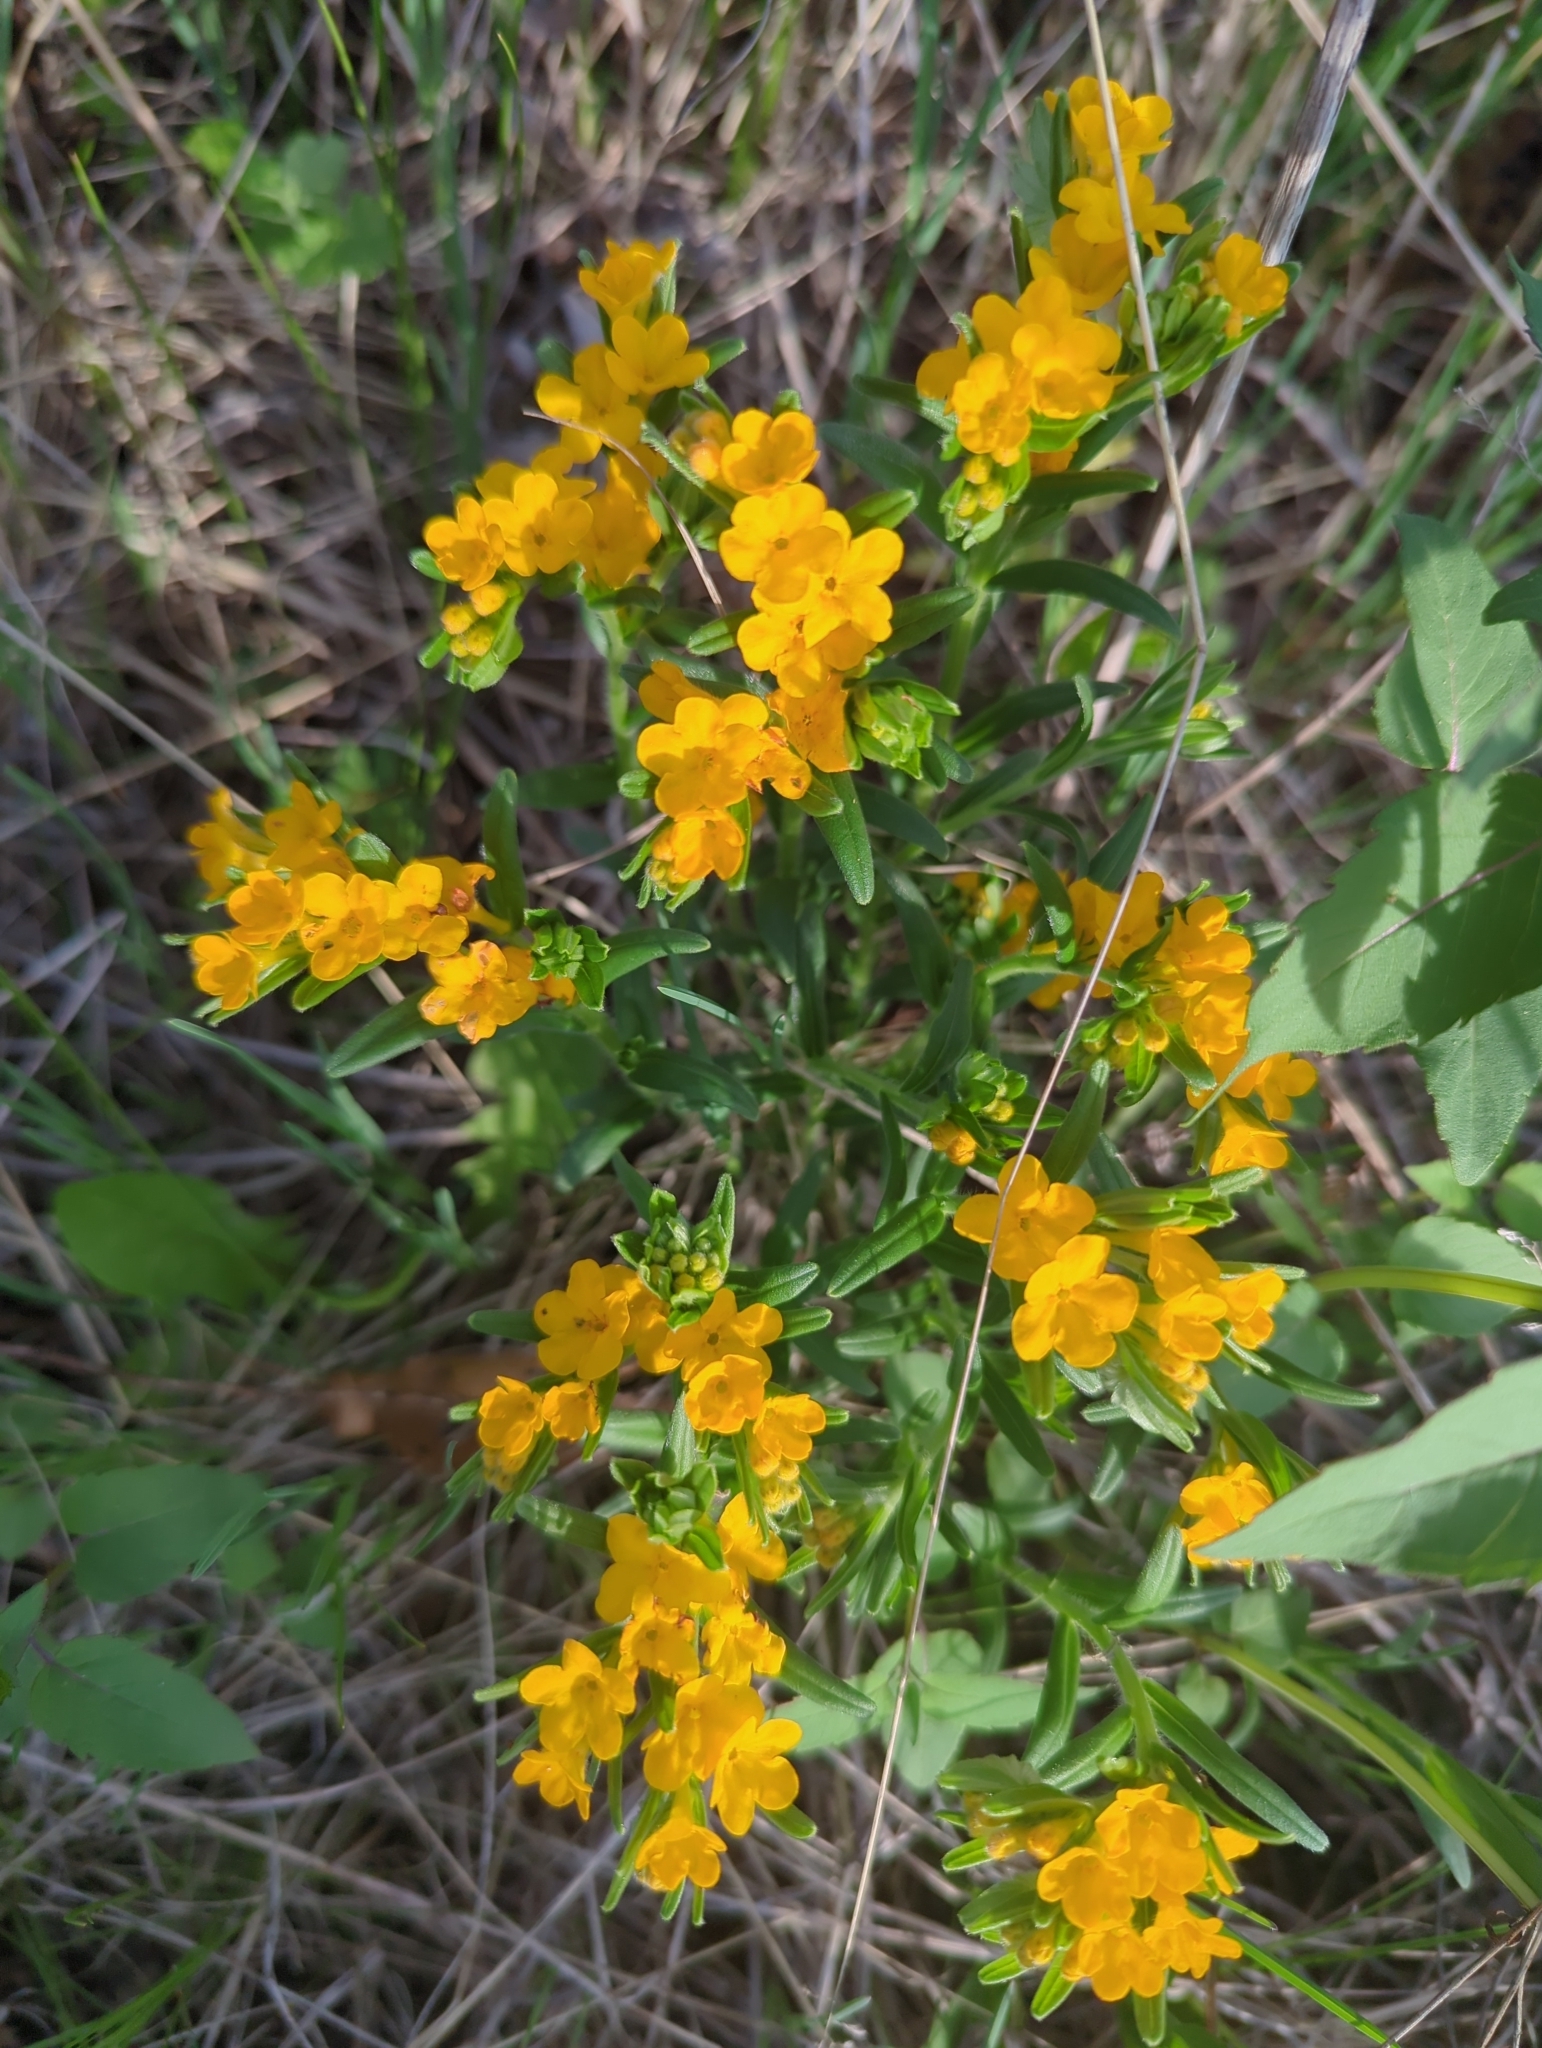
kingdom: Plantae
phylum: Tracheophyta
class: Magnoliopsida
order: Boraginales
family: Boraginaceae
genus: Lithospermum
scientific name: Lithospermum canescens
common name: Hoary puccoon
